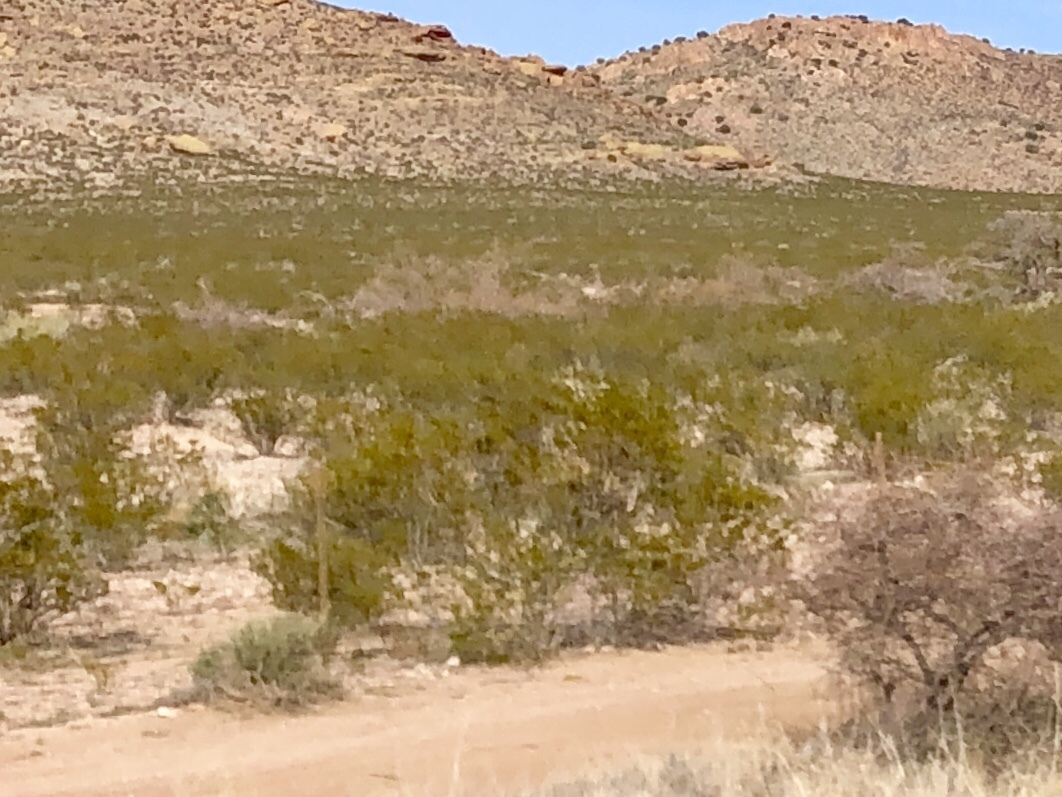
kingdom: Plantae
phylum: Tracheophyta
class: Magnoliopsida
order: Zygophyllales
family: Zygophyllaceae
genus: Larrea
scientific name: Larrea tridentata
